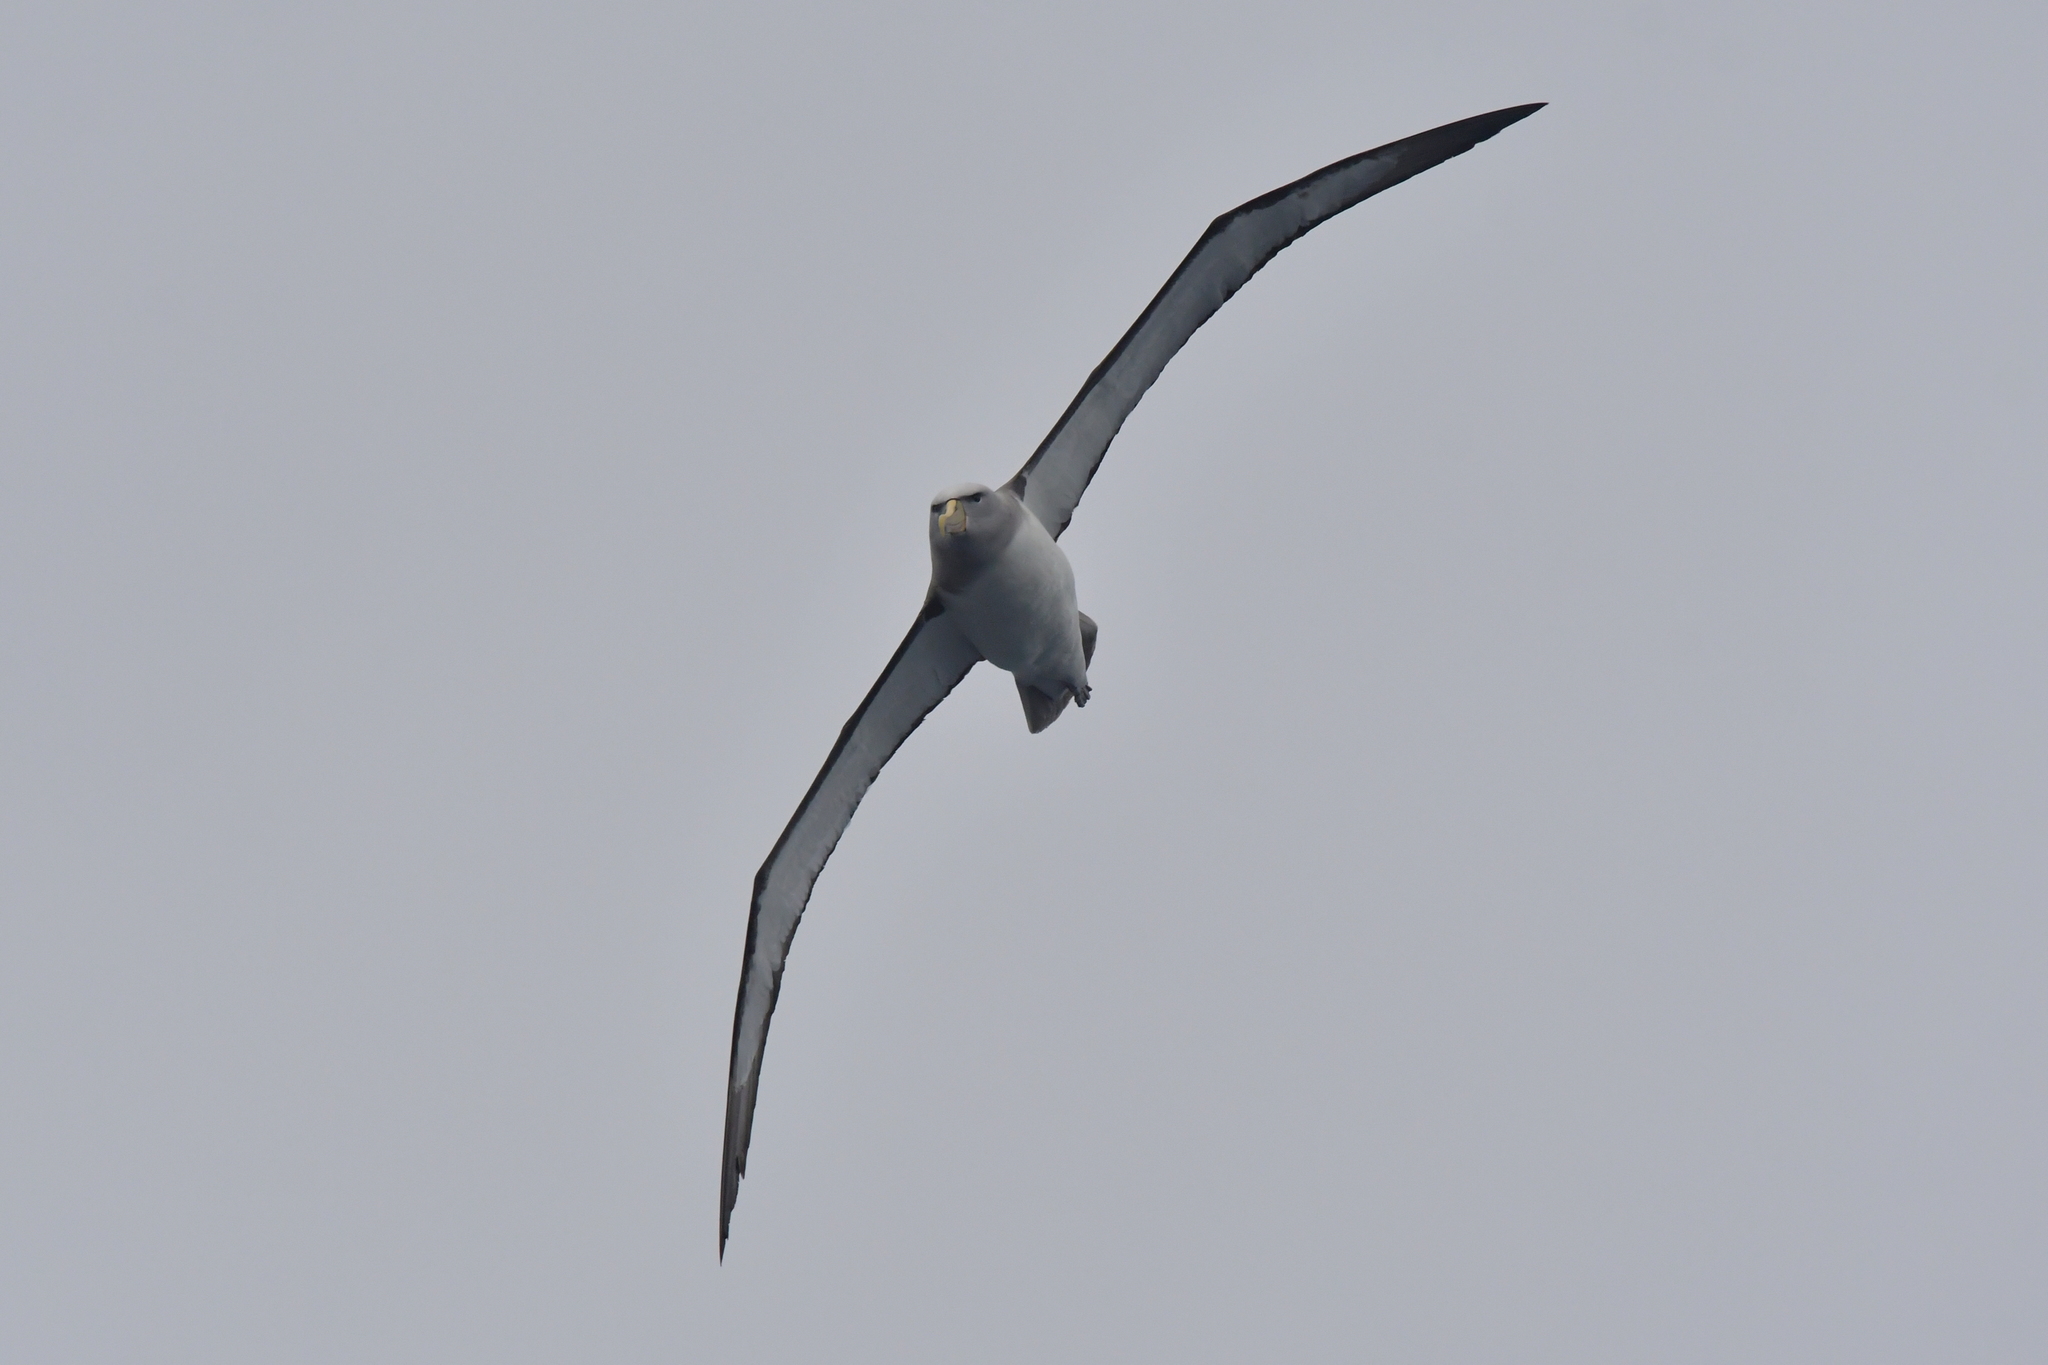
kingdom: Animalia
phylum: Chordata
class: Aves
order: Procellariiformes
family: Diomedeidae
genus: Thalassarche
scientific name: Thalassarche salvini
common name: Salvin's albatross
